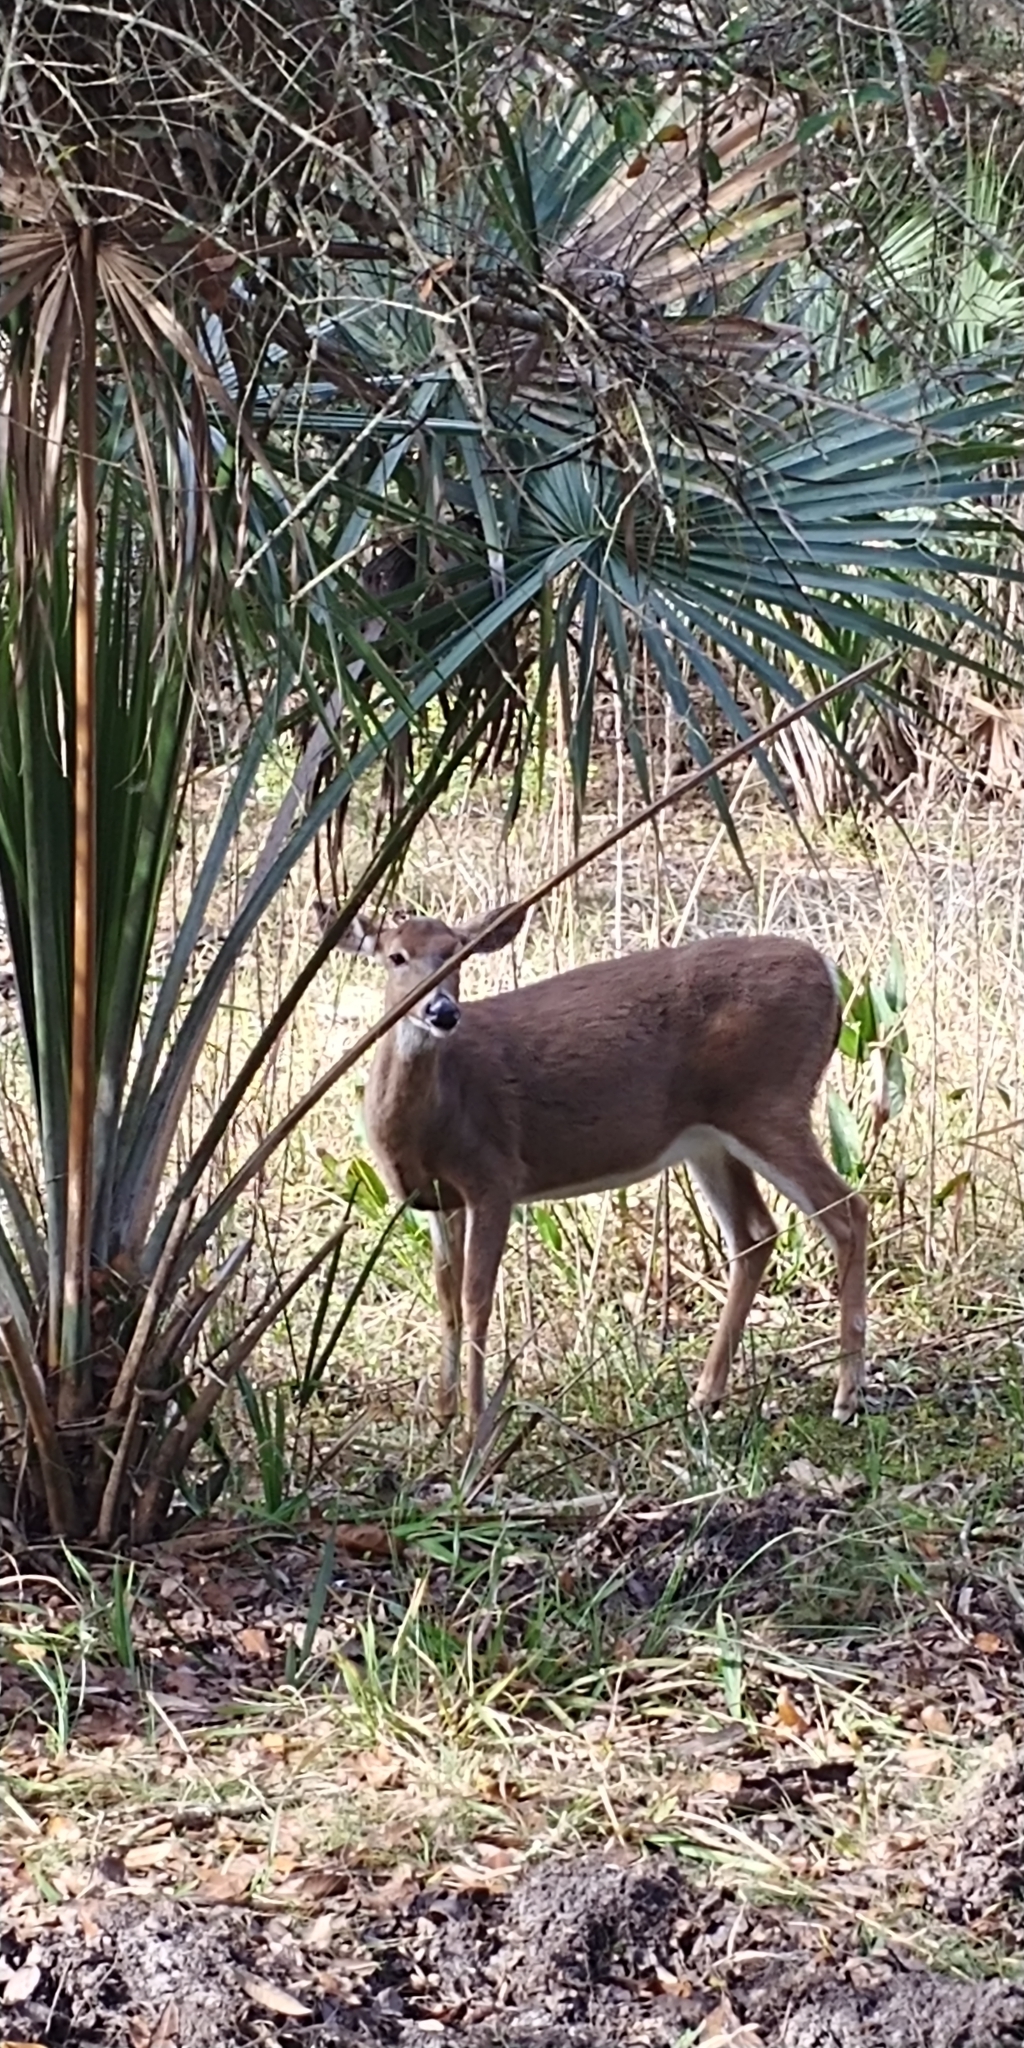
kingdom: Animalia
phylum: Chordata
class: Mammalia
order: Artiodactyla
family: Cervidae
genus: Odocoileus
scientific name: Odocoileus virginianus
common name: White-tailed deer
